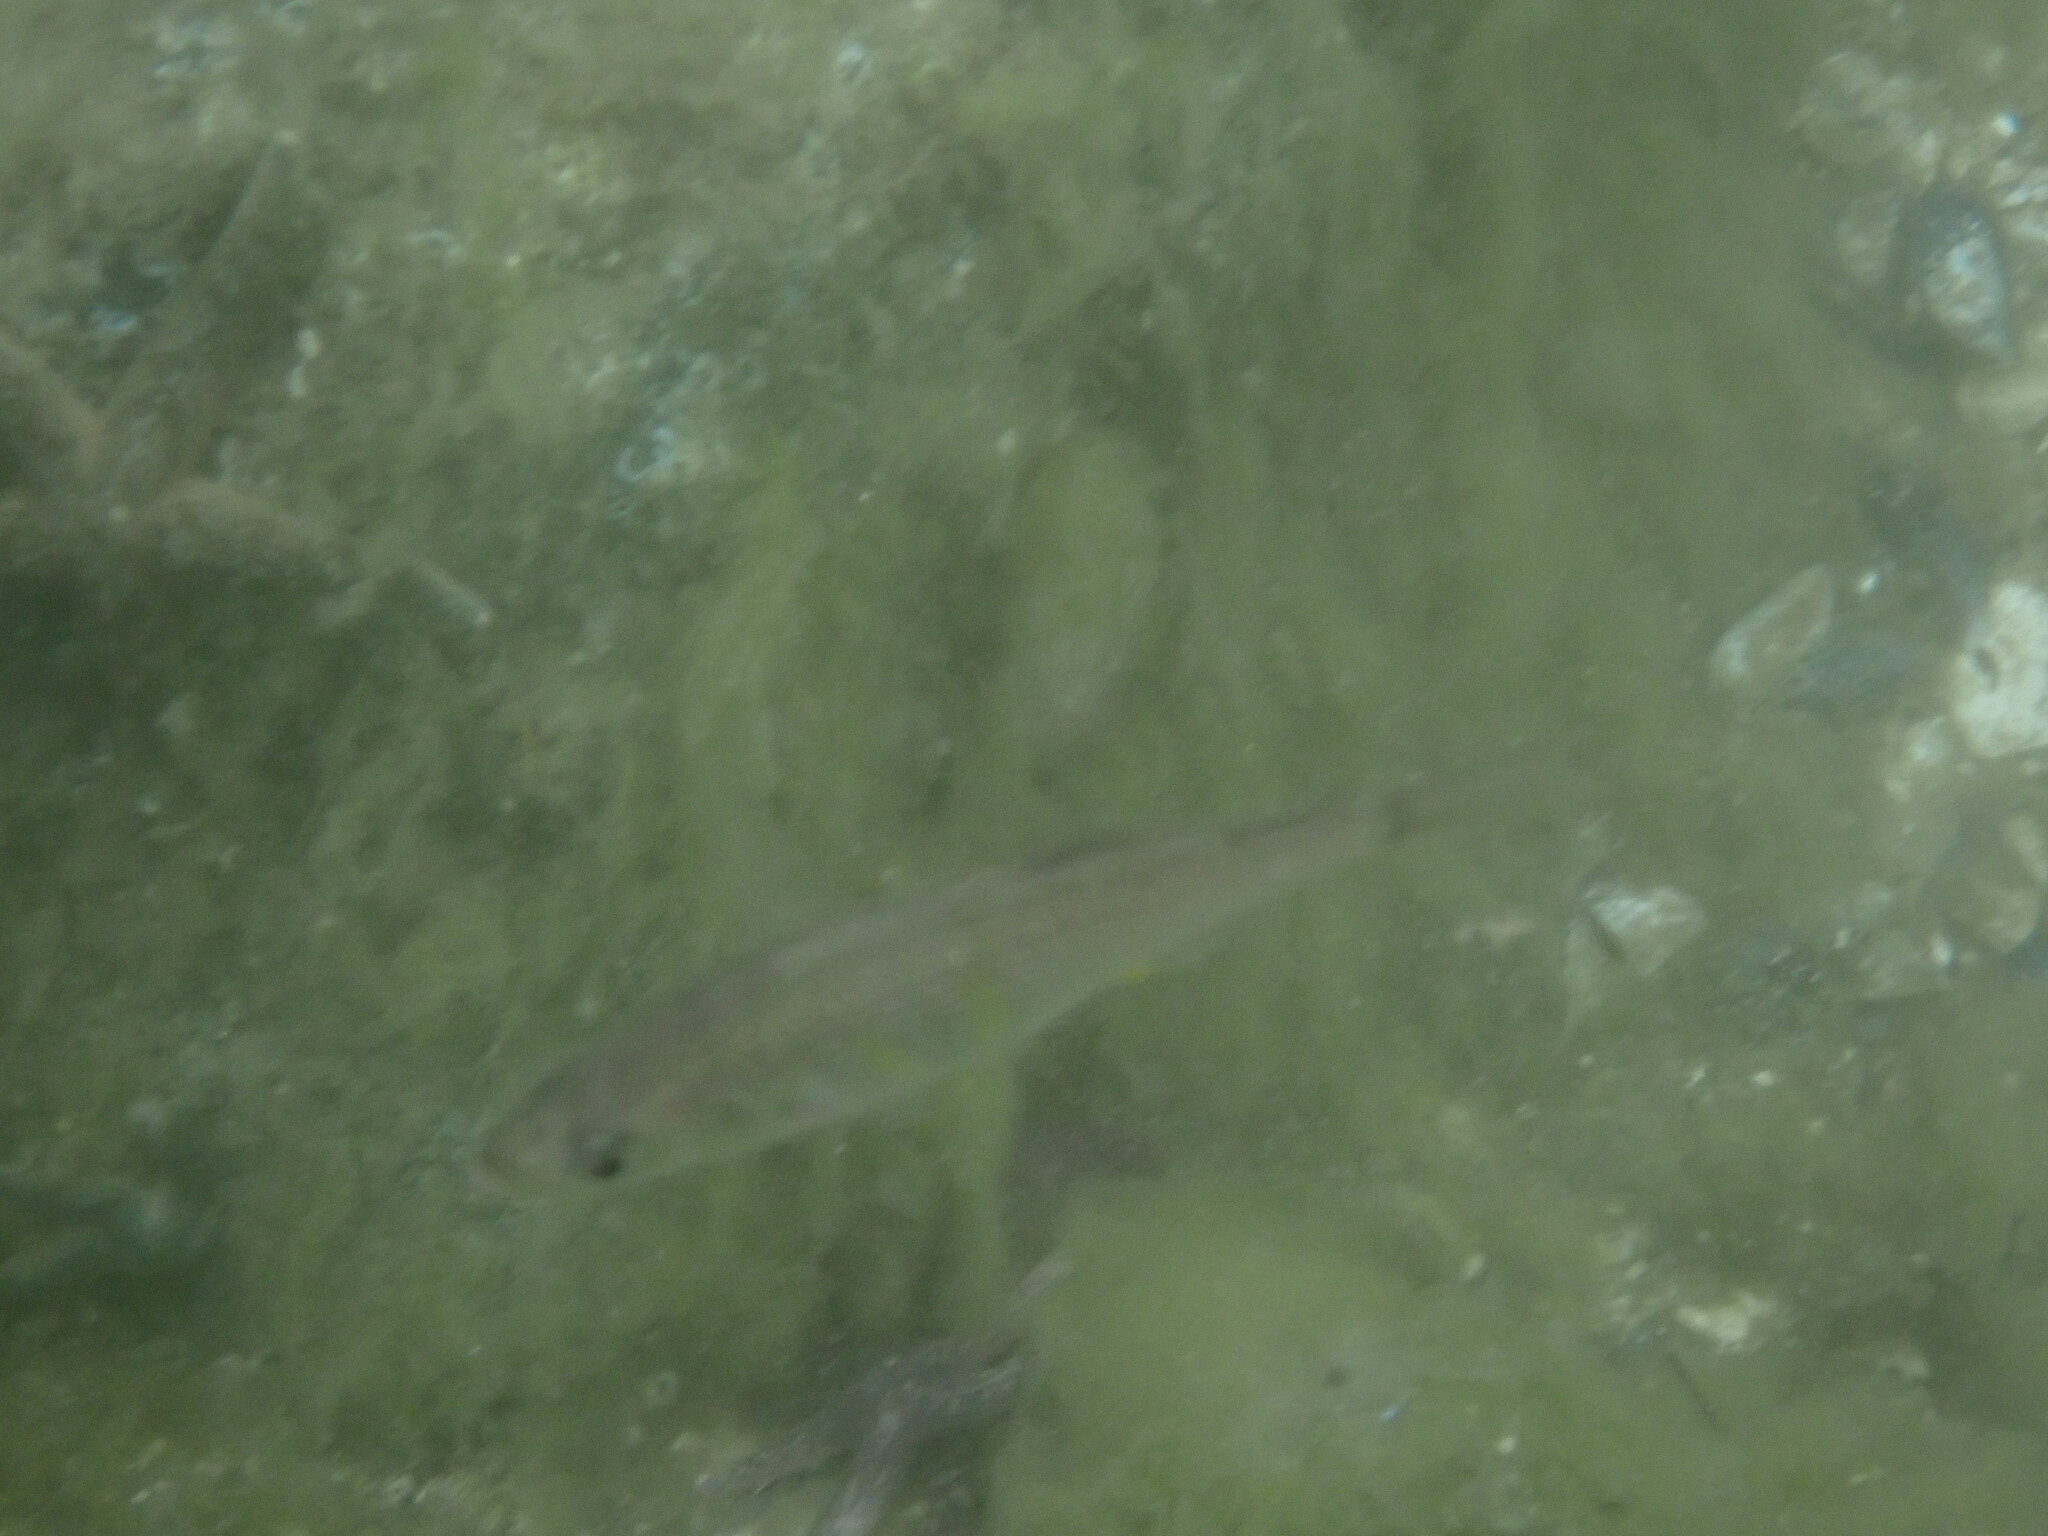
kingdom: Animalia
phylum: Chordata
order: Perciformes
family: Embiotocidae
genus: Cymatogaster
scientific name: Cymatogaster aggregata
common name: Shiner perch
